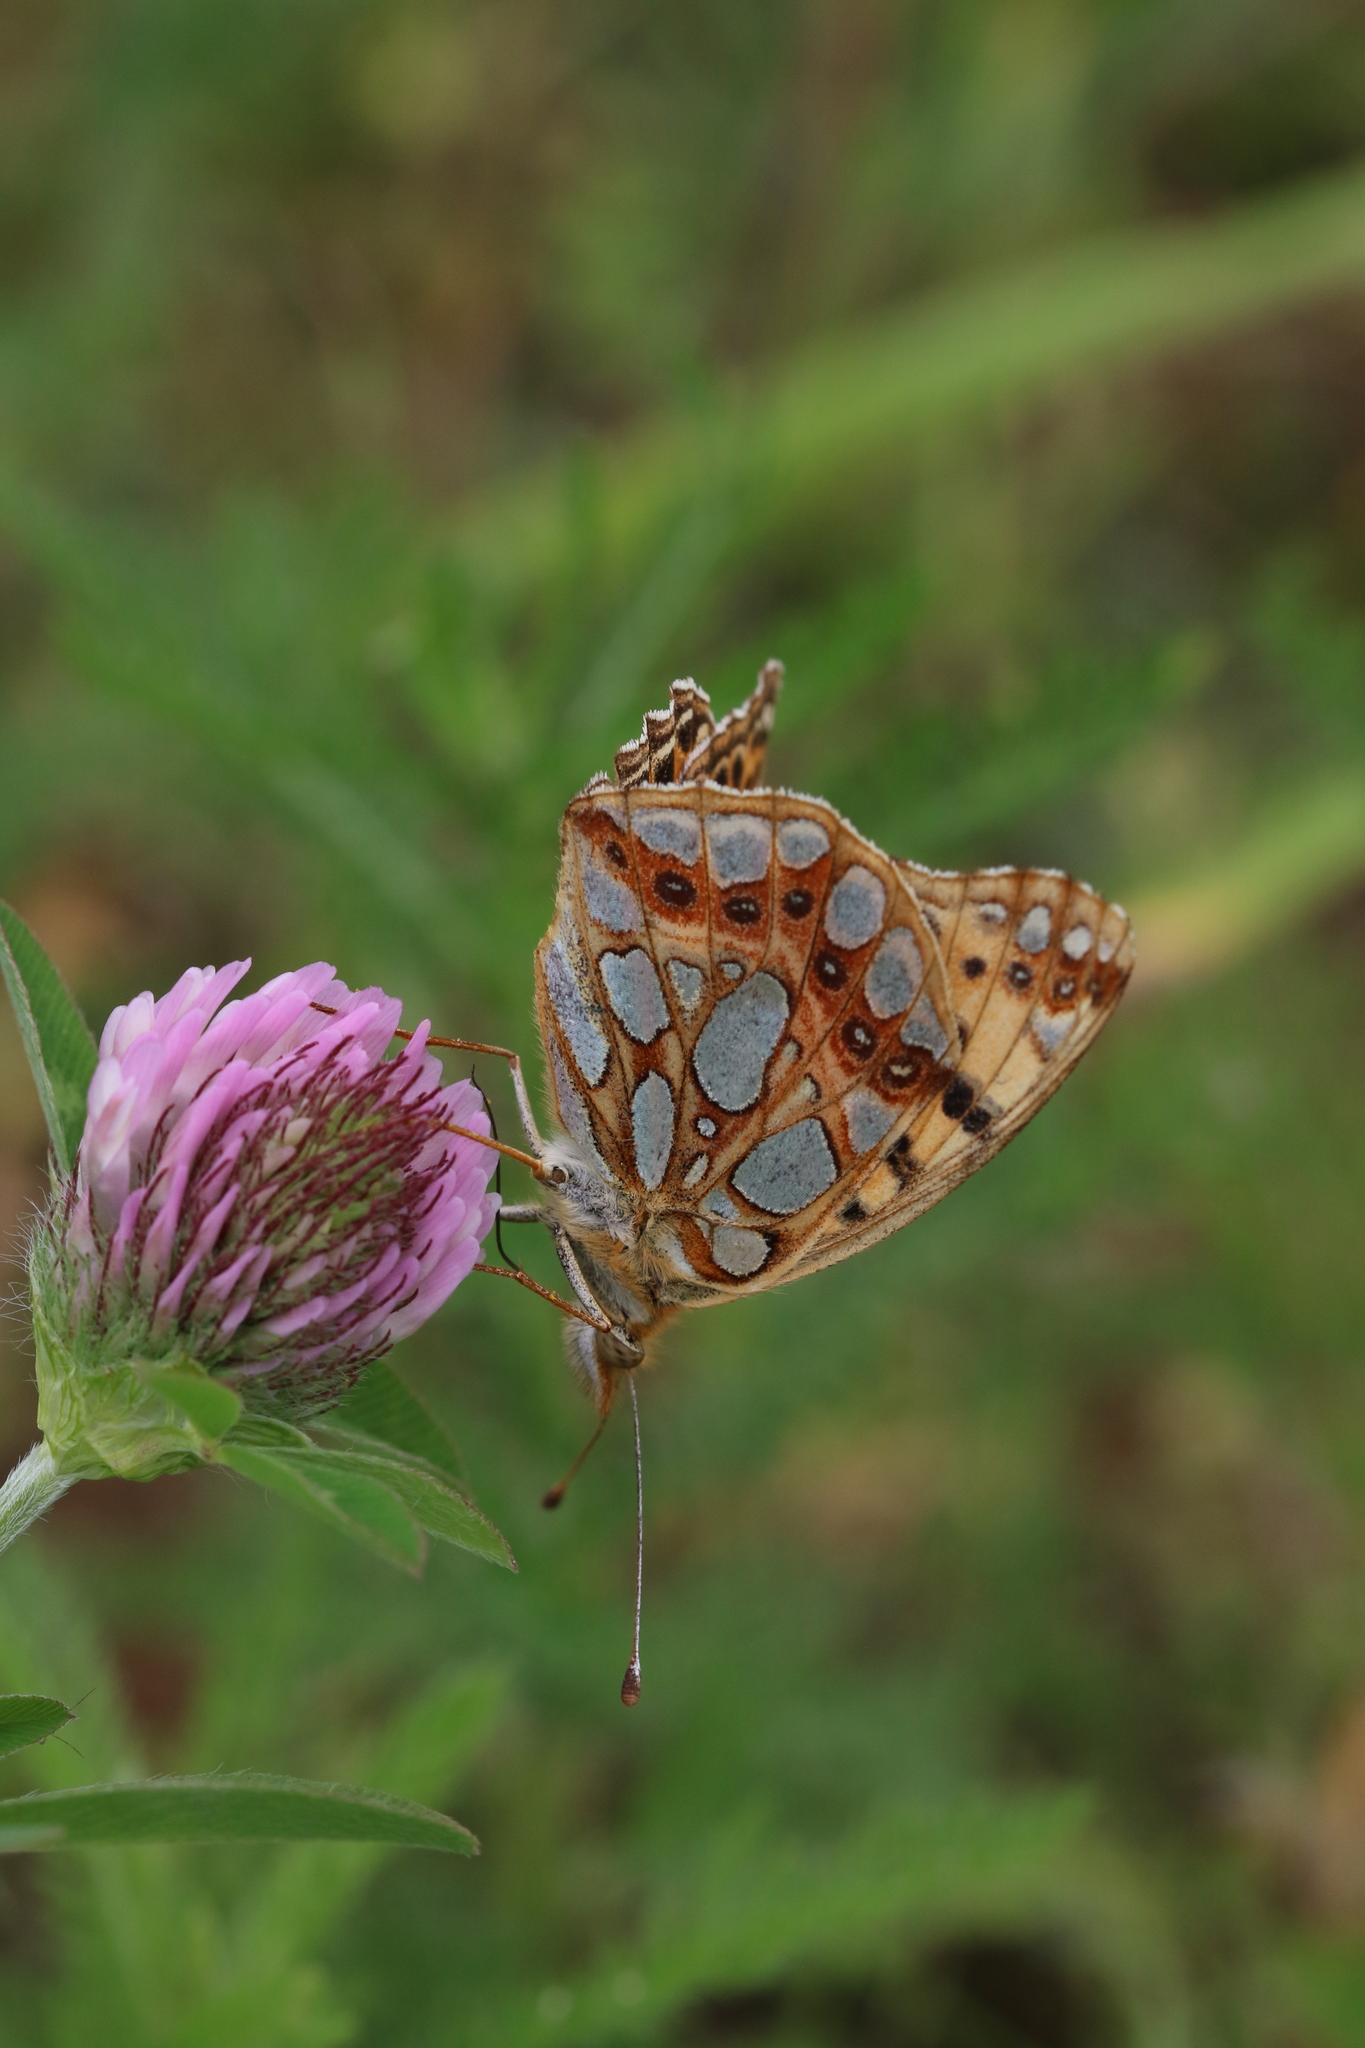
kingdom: Animalia
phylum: Arthropoda
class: Insecta
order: Lepidoptera
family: Nymphalidae
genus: Issoria
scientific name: Issoria lathonia
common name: Queen of spain fritillary
